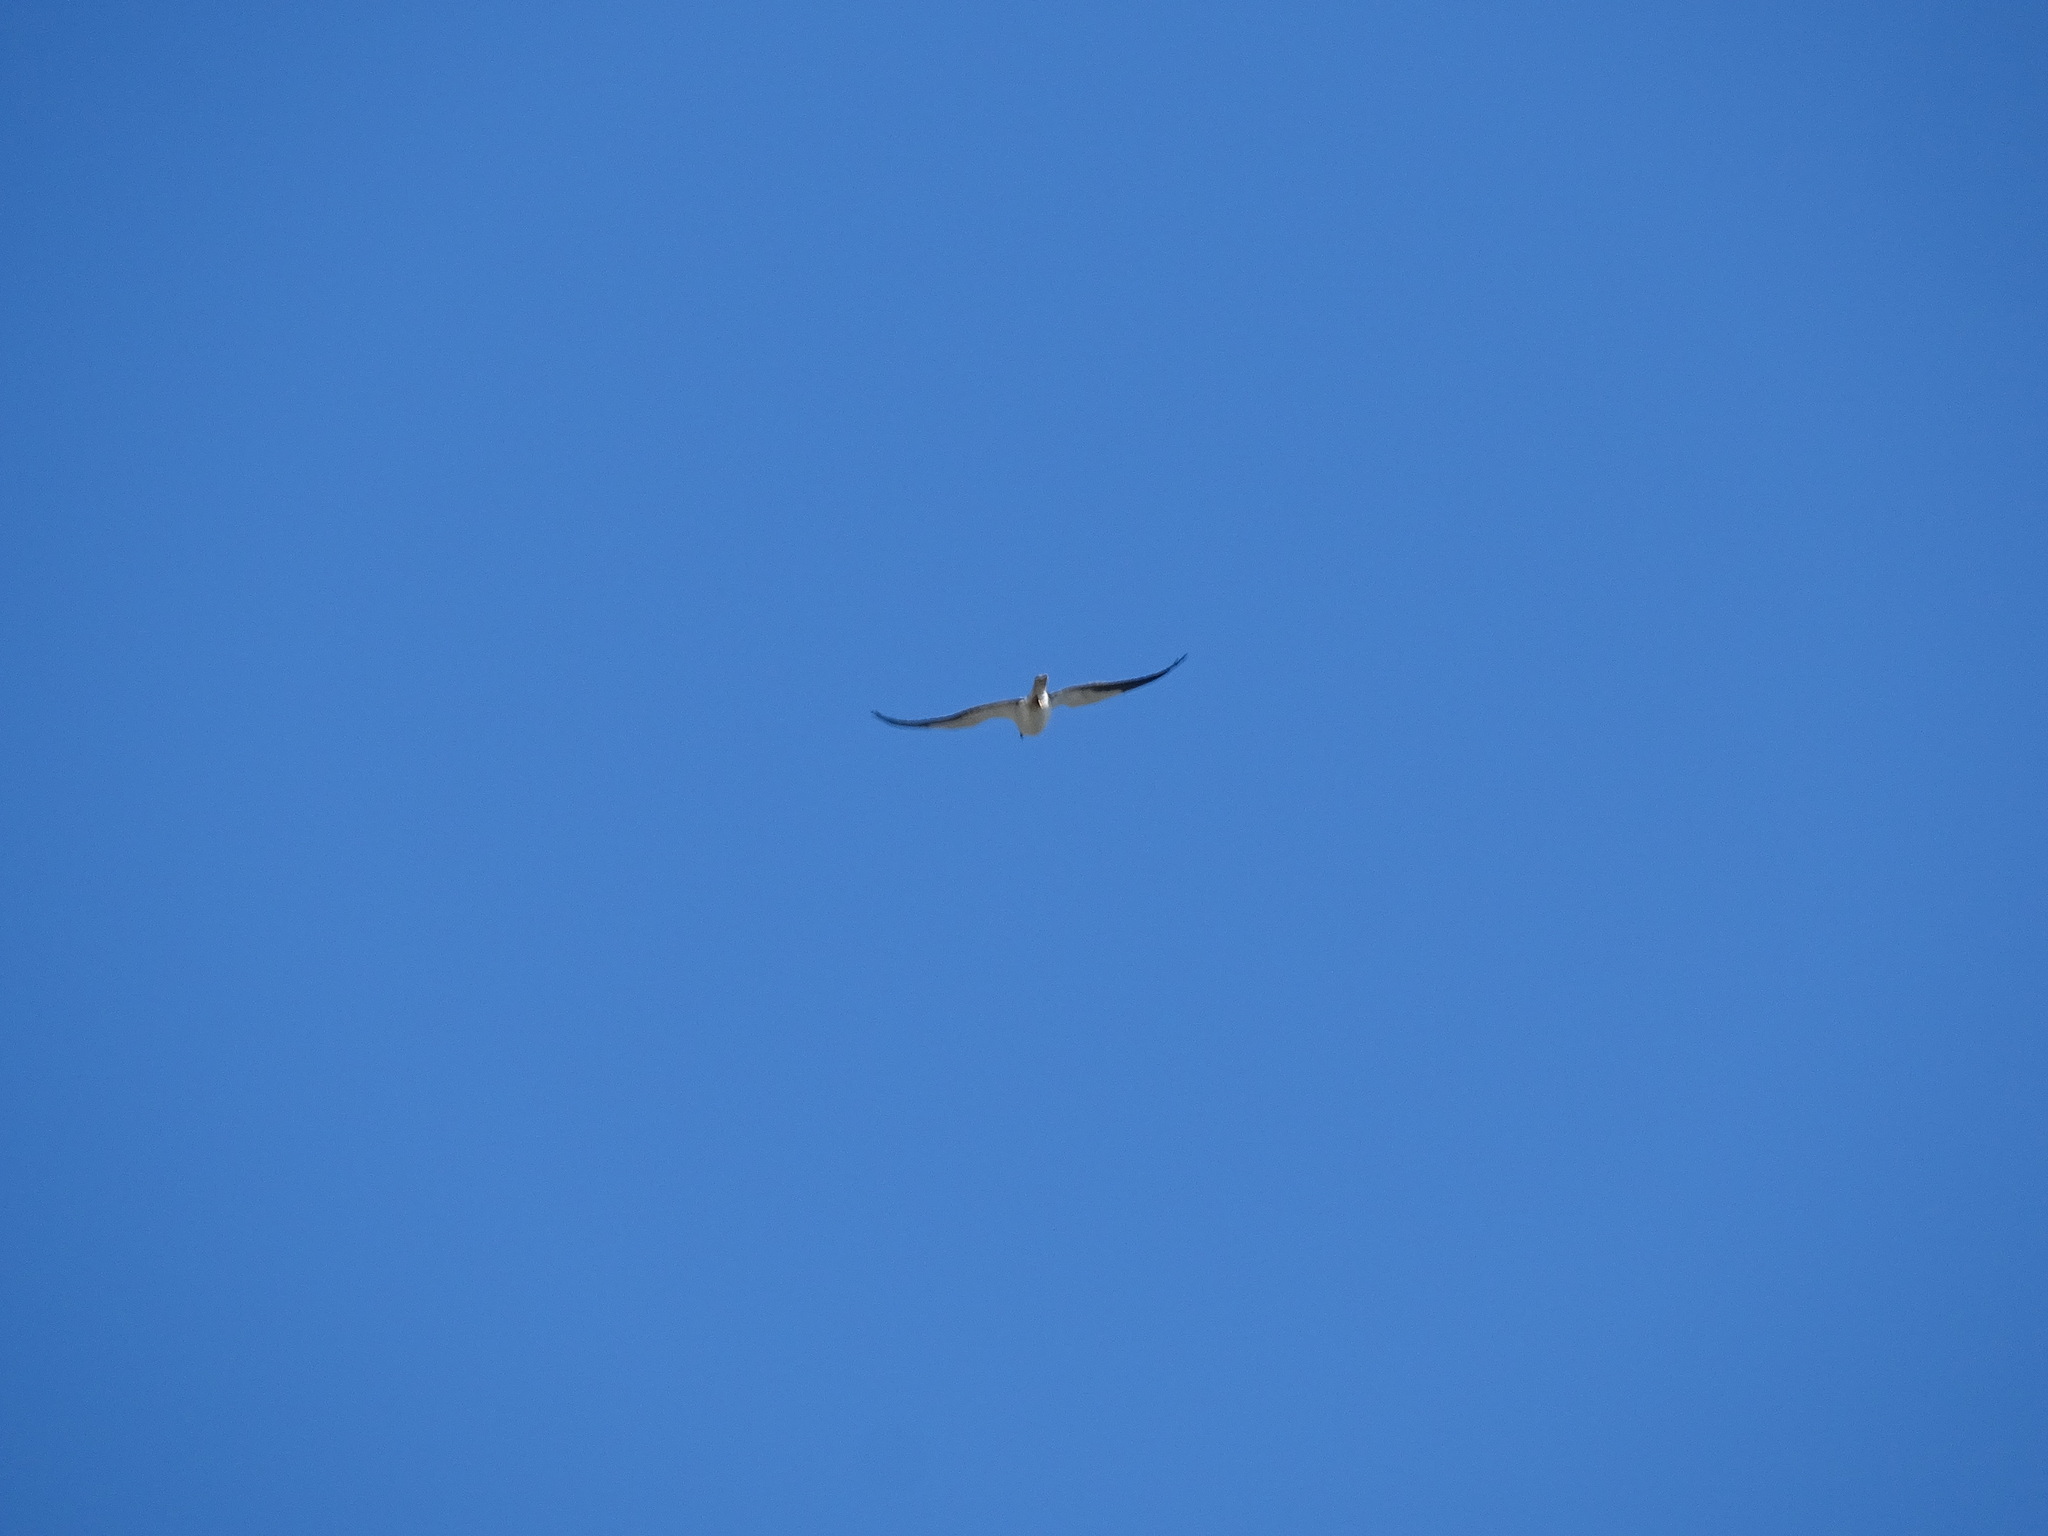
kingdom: Animalia
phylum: Chordata
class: Aves
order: Accipitriformes
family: Accipitridae
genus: Elanus
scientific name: Elanus caeruleus
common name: Black-winged kite
